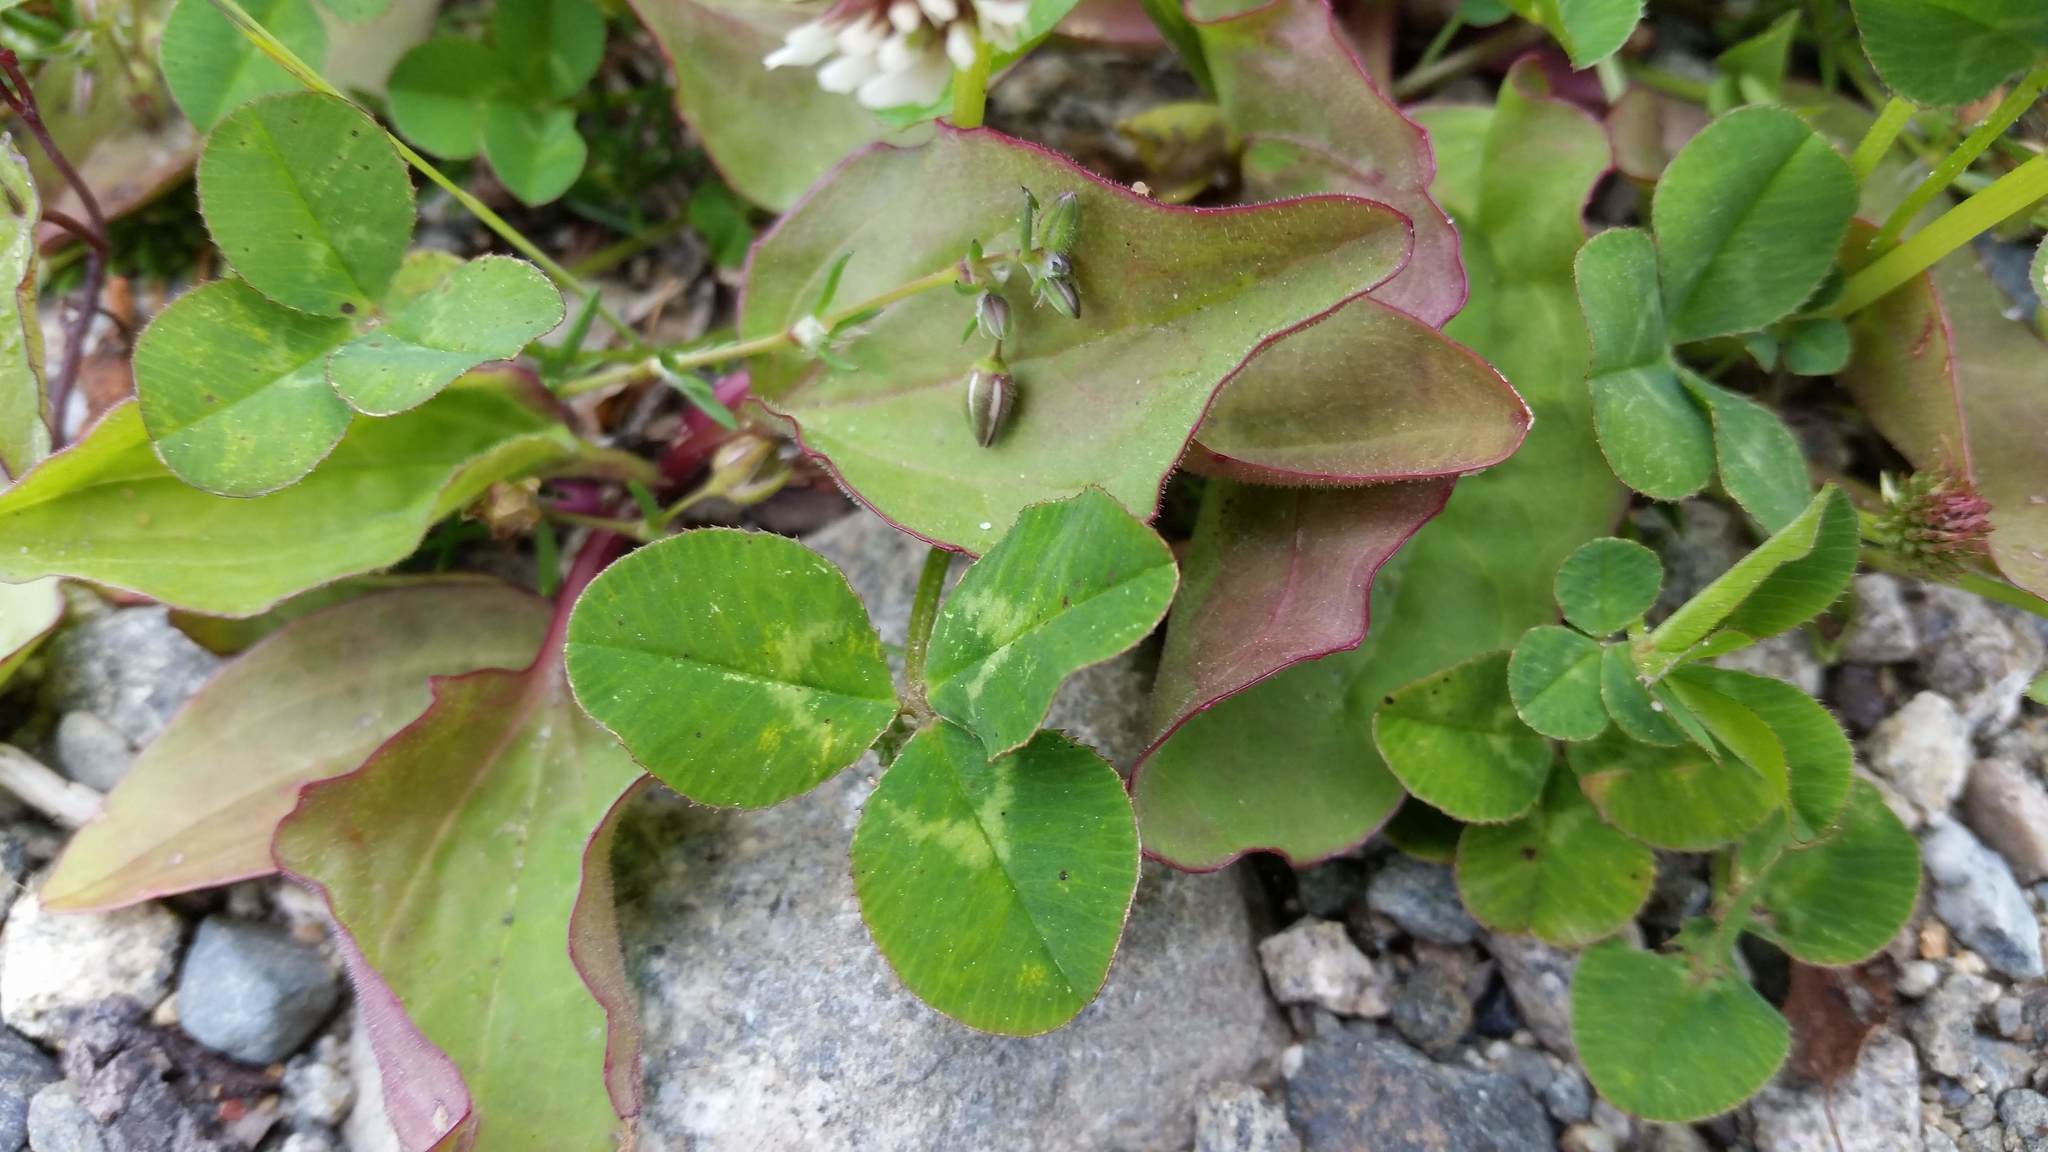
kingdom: Plantae
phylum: Tracheophyta
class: Magnoliopsida
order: Fabales
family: Fabaceae
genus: Trifolium
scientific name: Trifolium repens
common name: White clover
